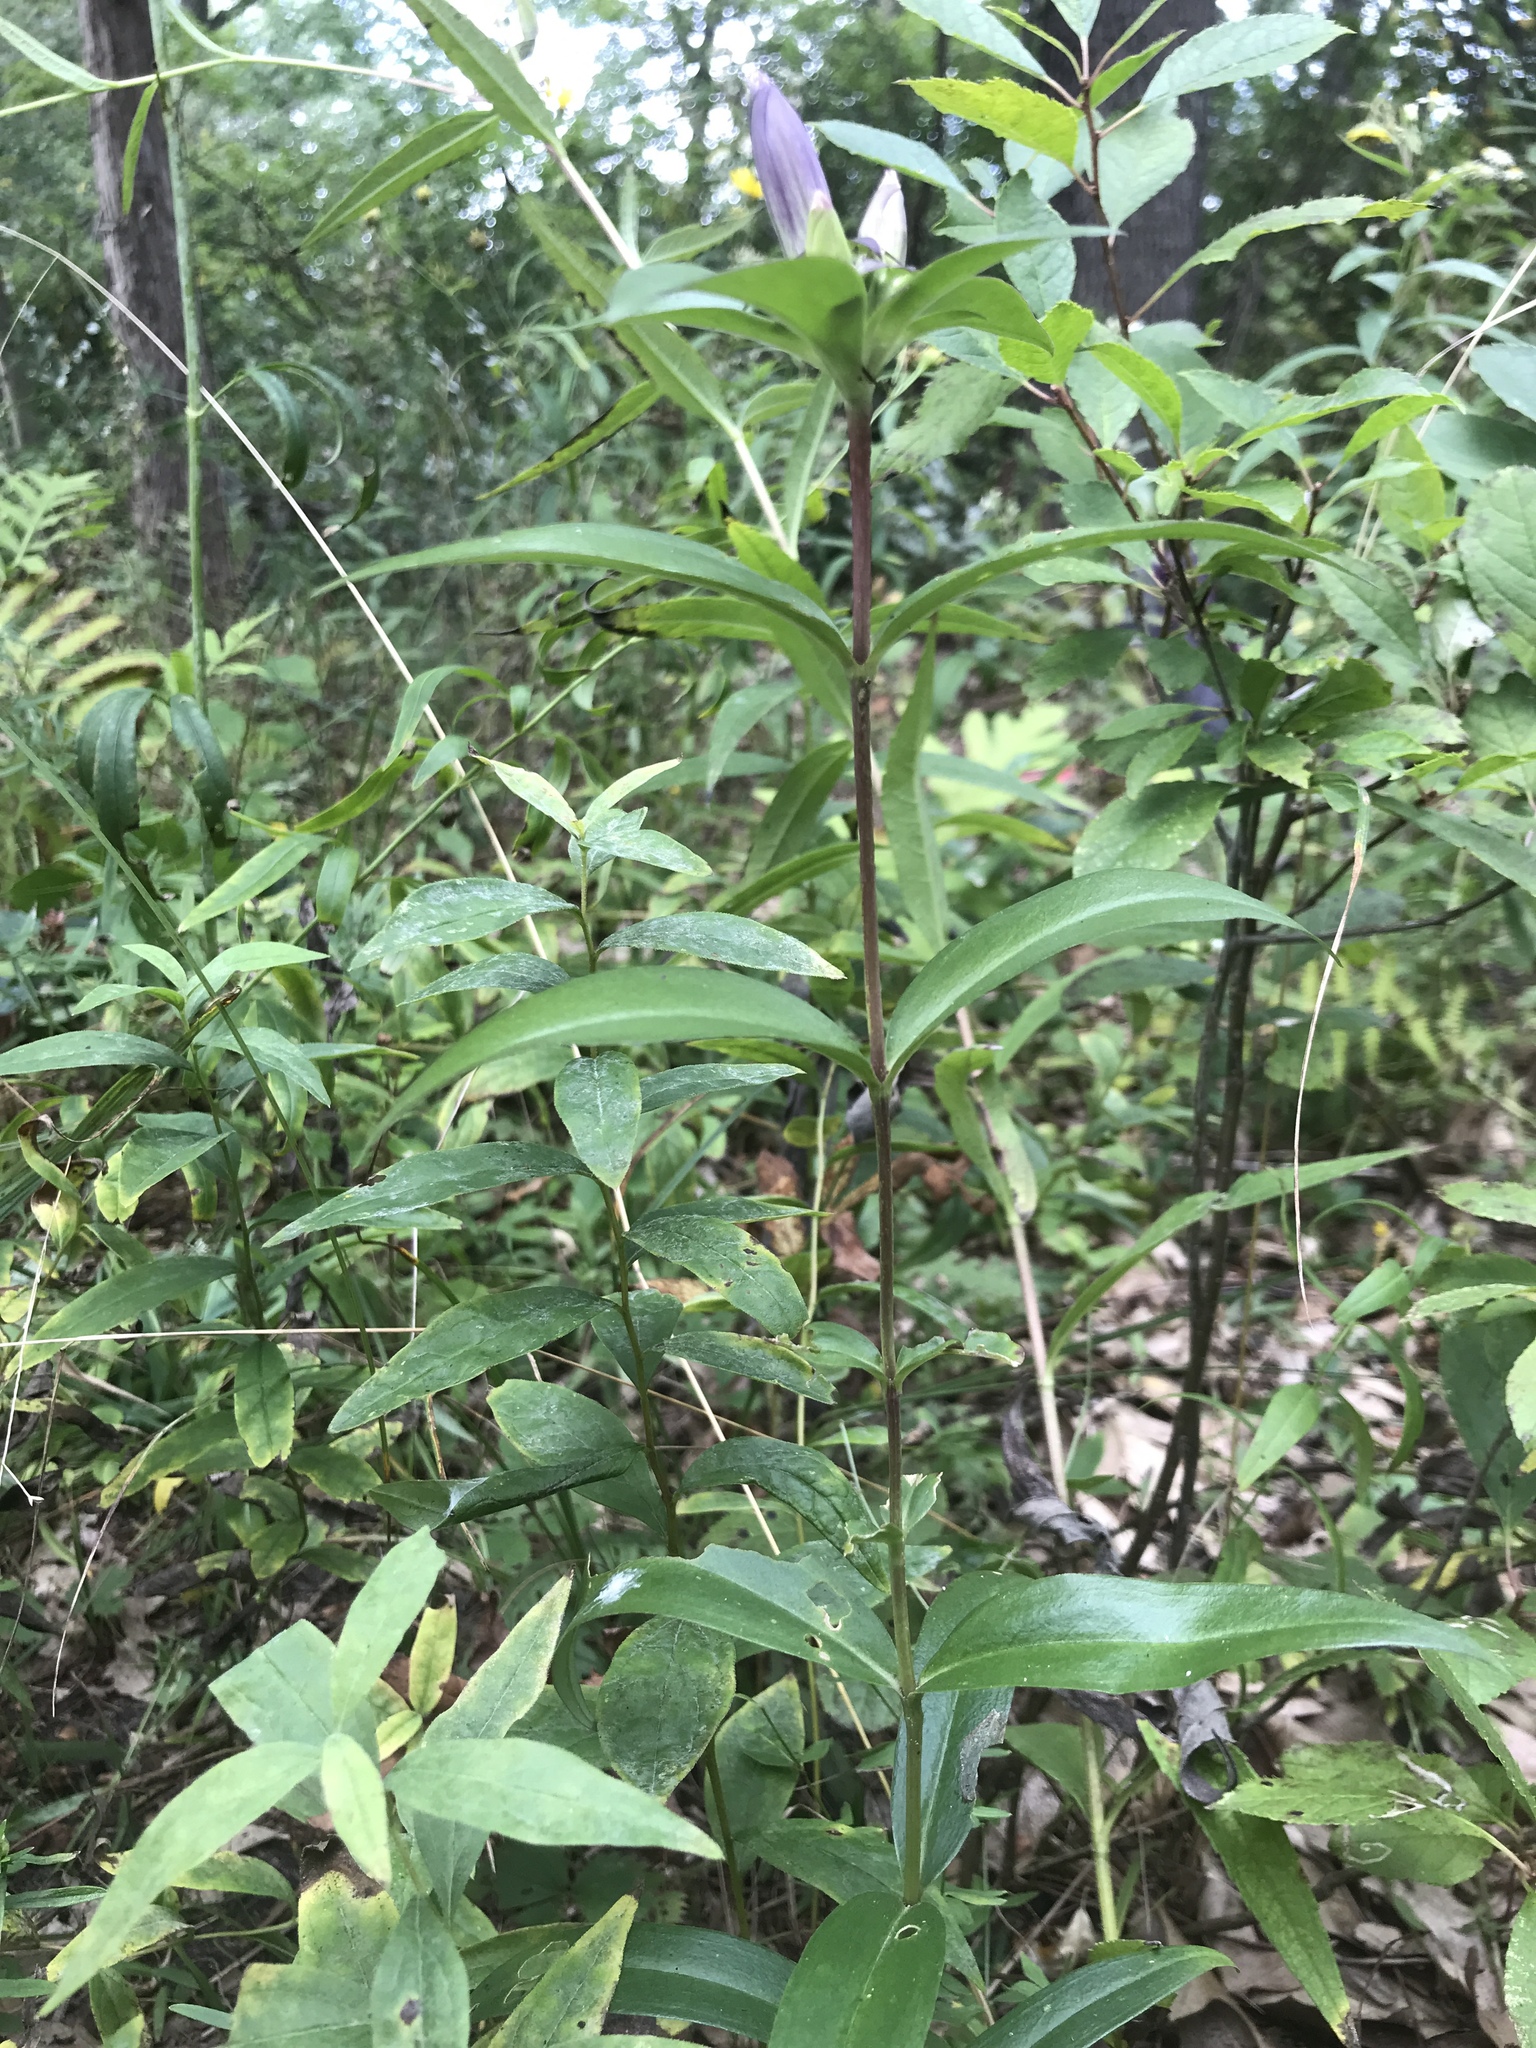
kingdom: Plantae
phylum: Tracheophyta
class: Magnoliopsida
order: Gentianales
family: Gentianaceae
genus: Gentiana
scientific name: Gentiana andrewsii
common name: Bottle gentian
